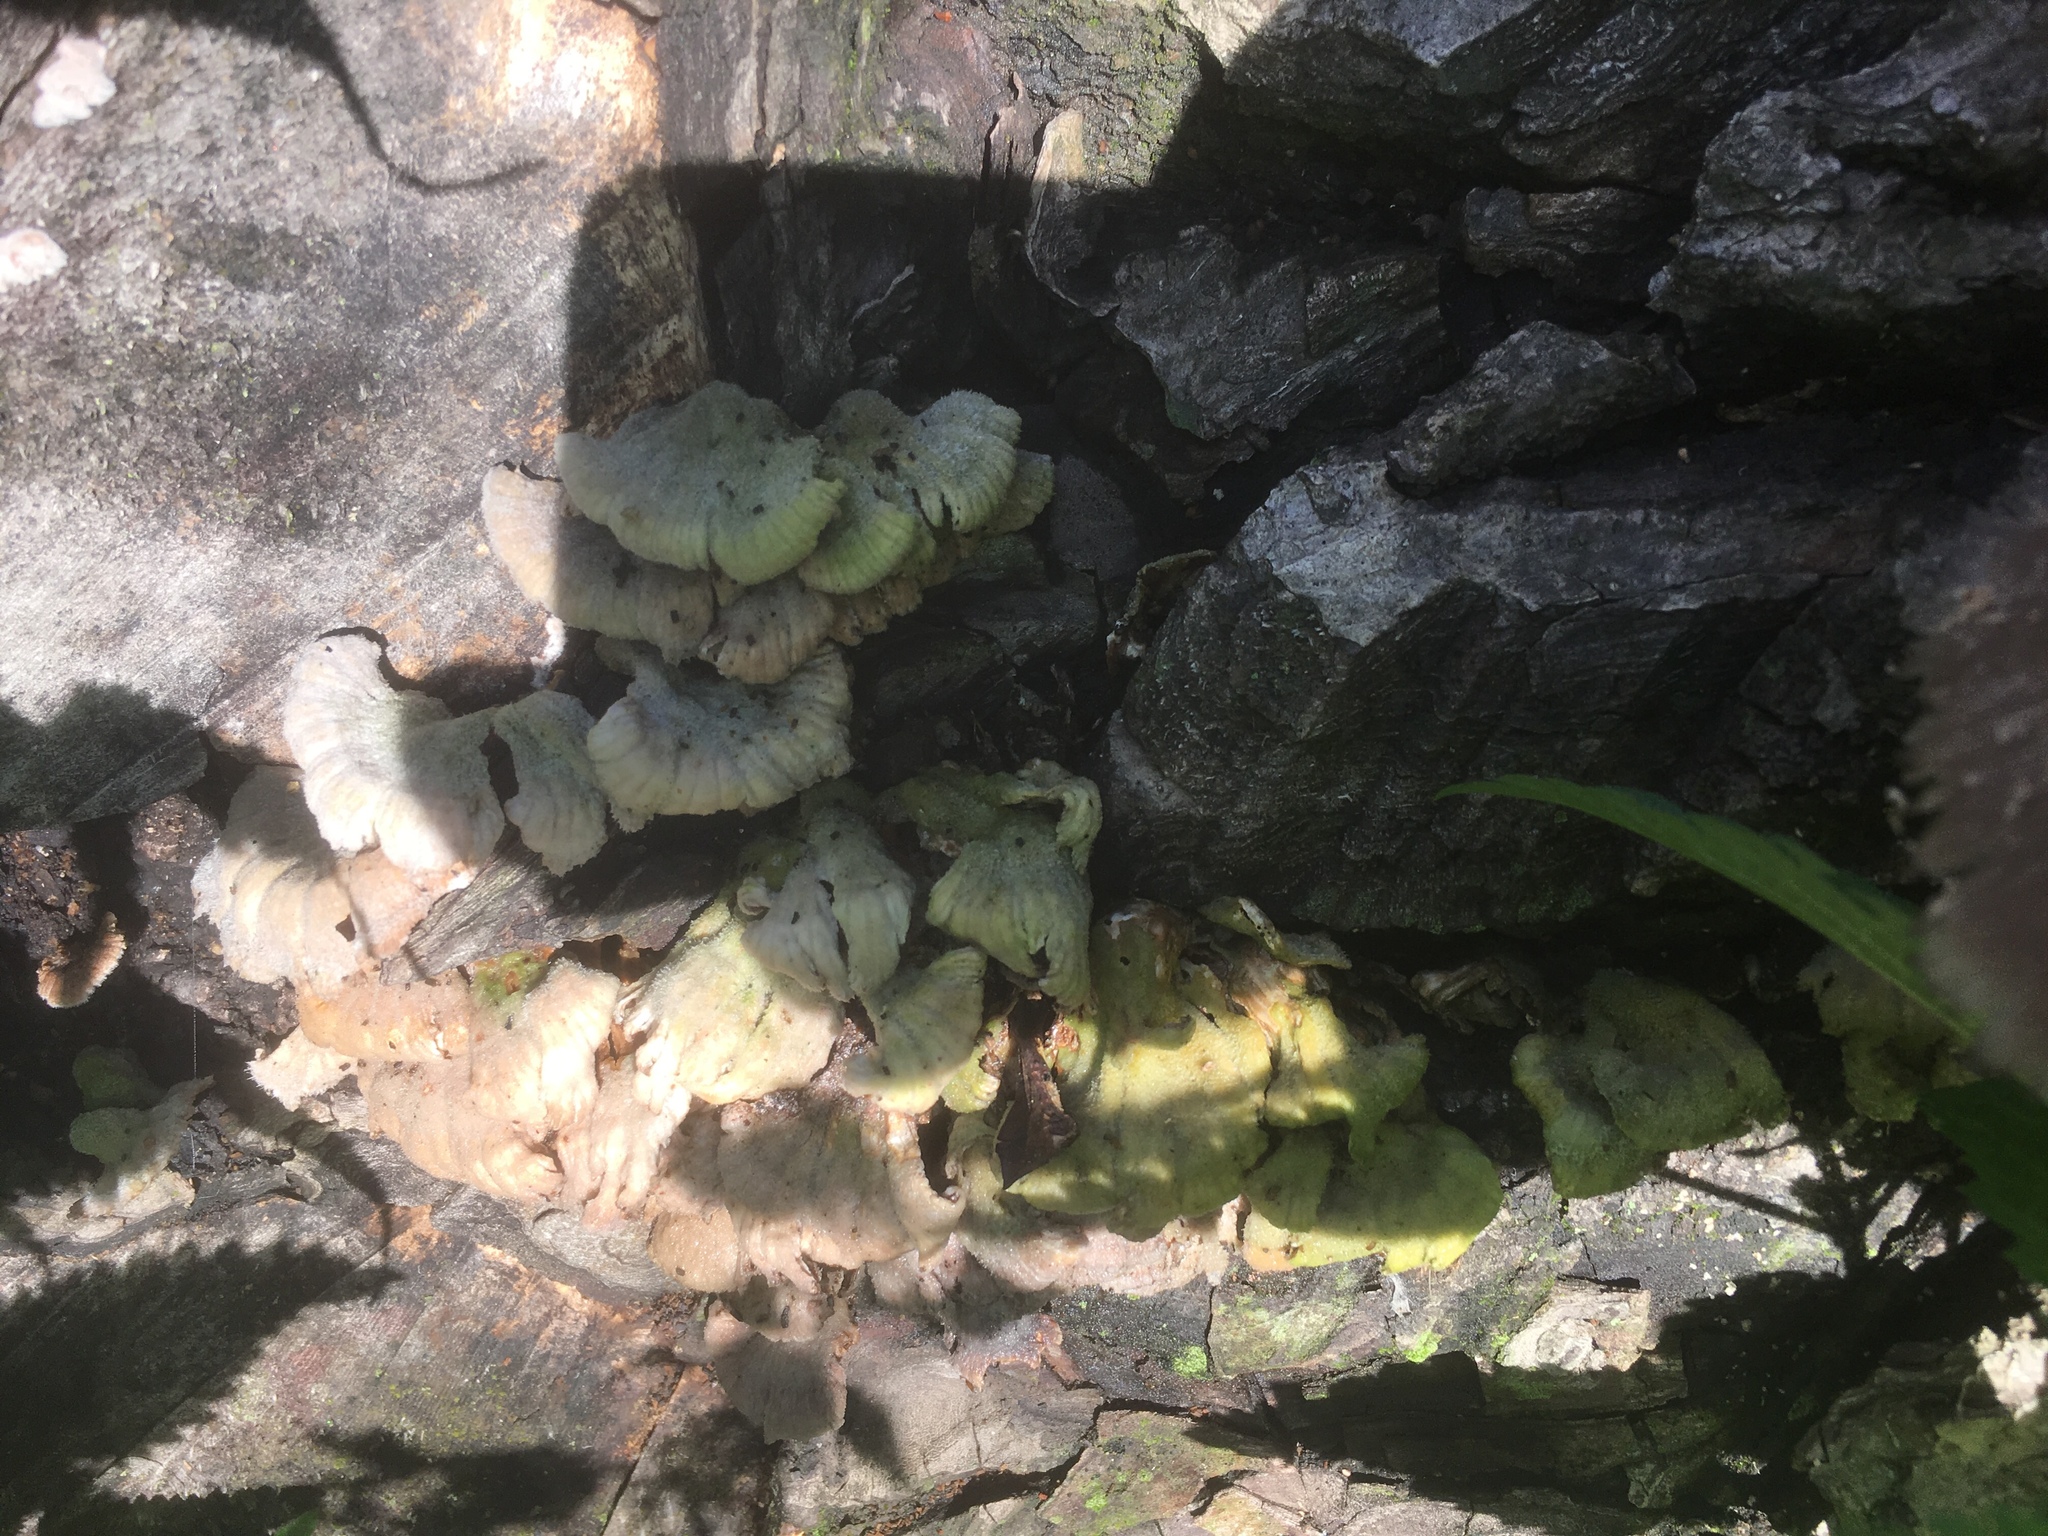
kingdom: Fungi
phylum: Basidiomycota
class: Agaricomycetes
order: Agaricales
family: Schizophyllaceae
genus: Schizophyllum
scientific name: Schizophyllum commune
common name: Common porecrust
